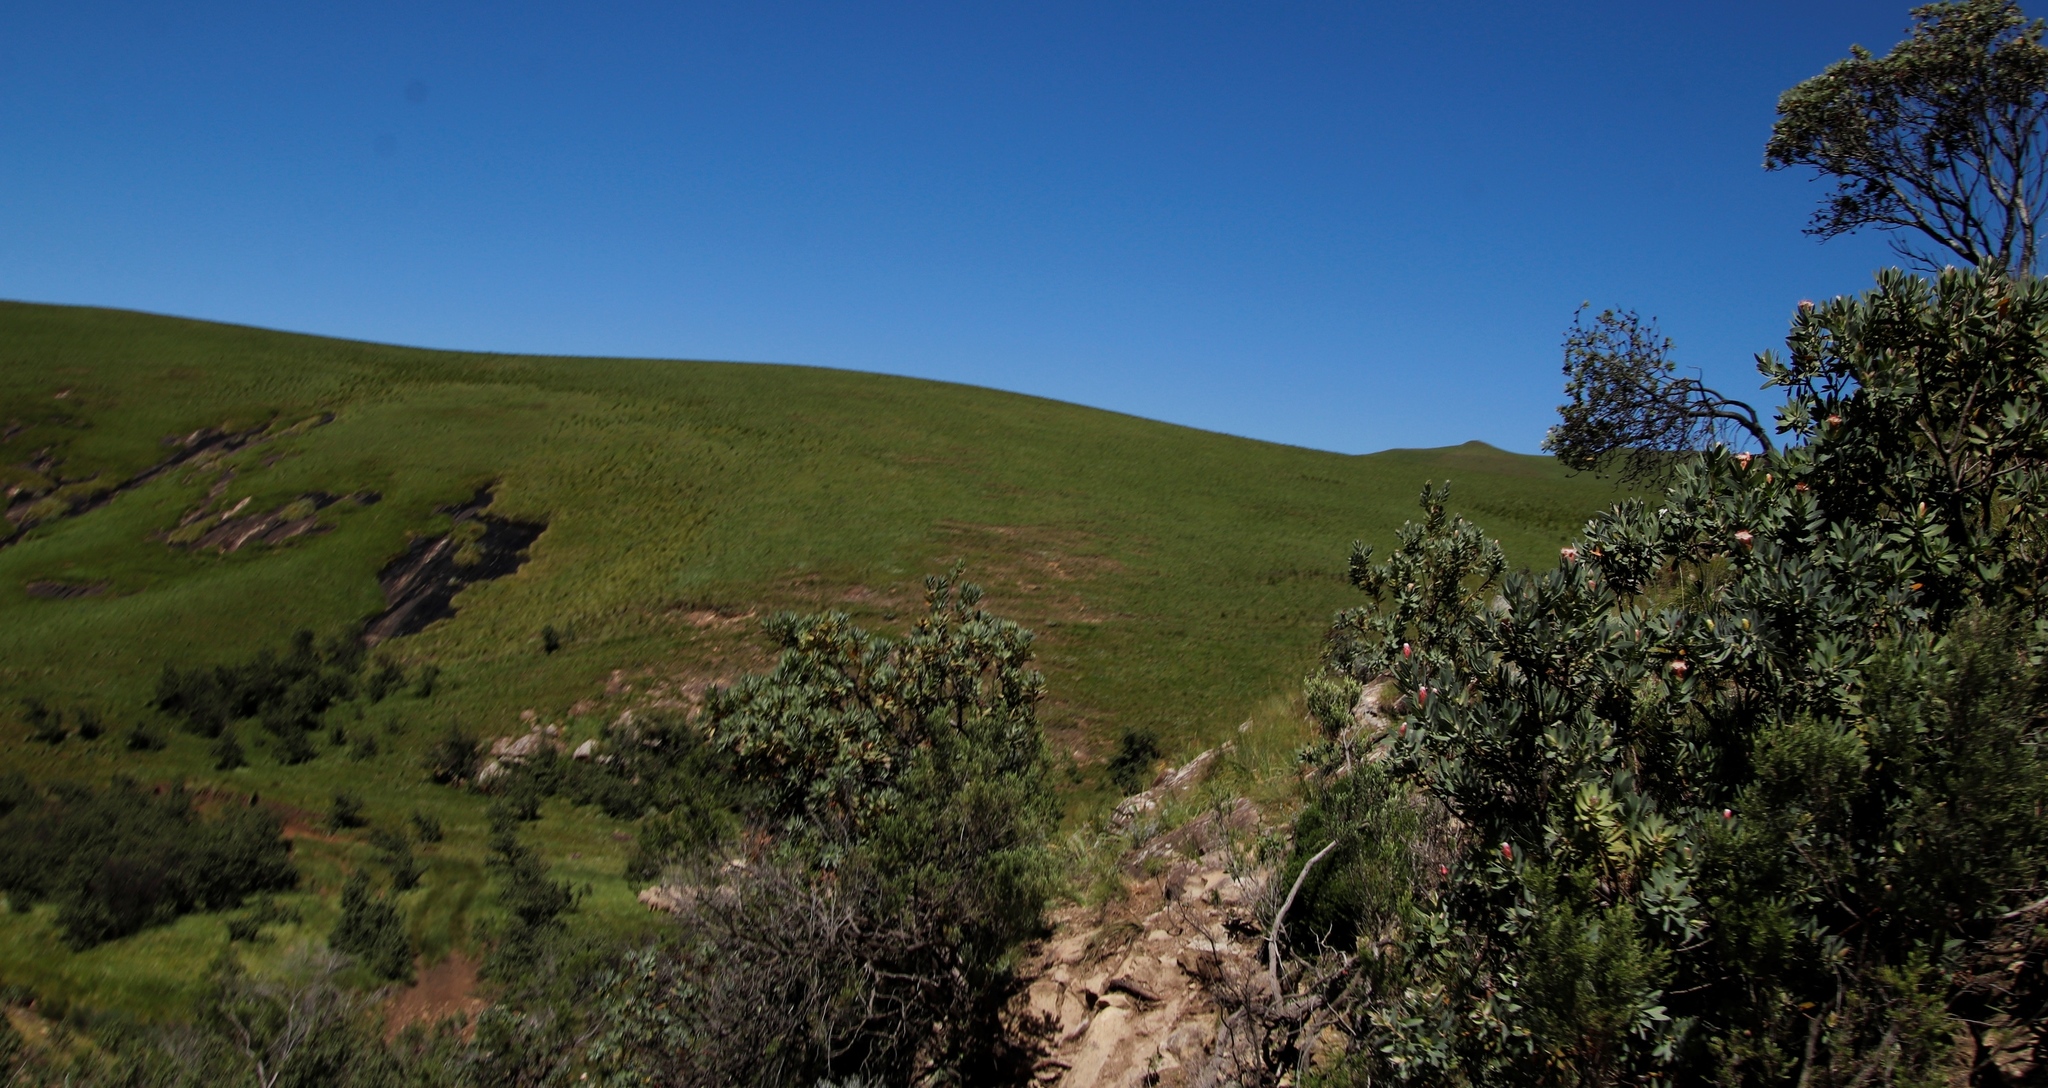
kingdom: Plantae
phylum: Tracheophyta
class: Magnoliopsida
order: Proteales
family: Proteaceae
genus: Protea
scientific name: Protea subvestita
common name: Lip-flower sugarbush
